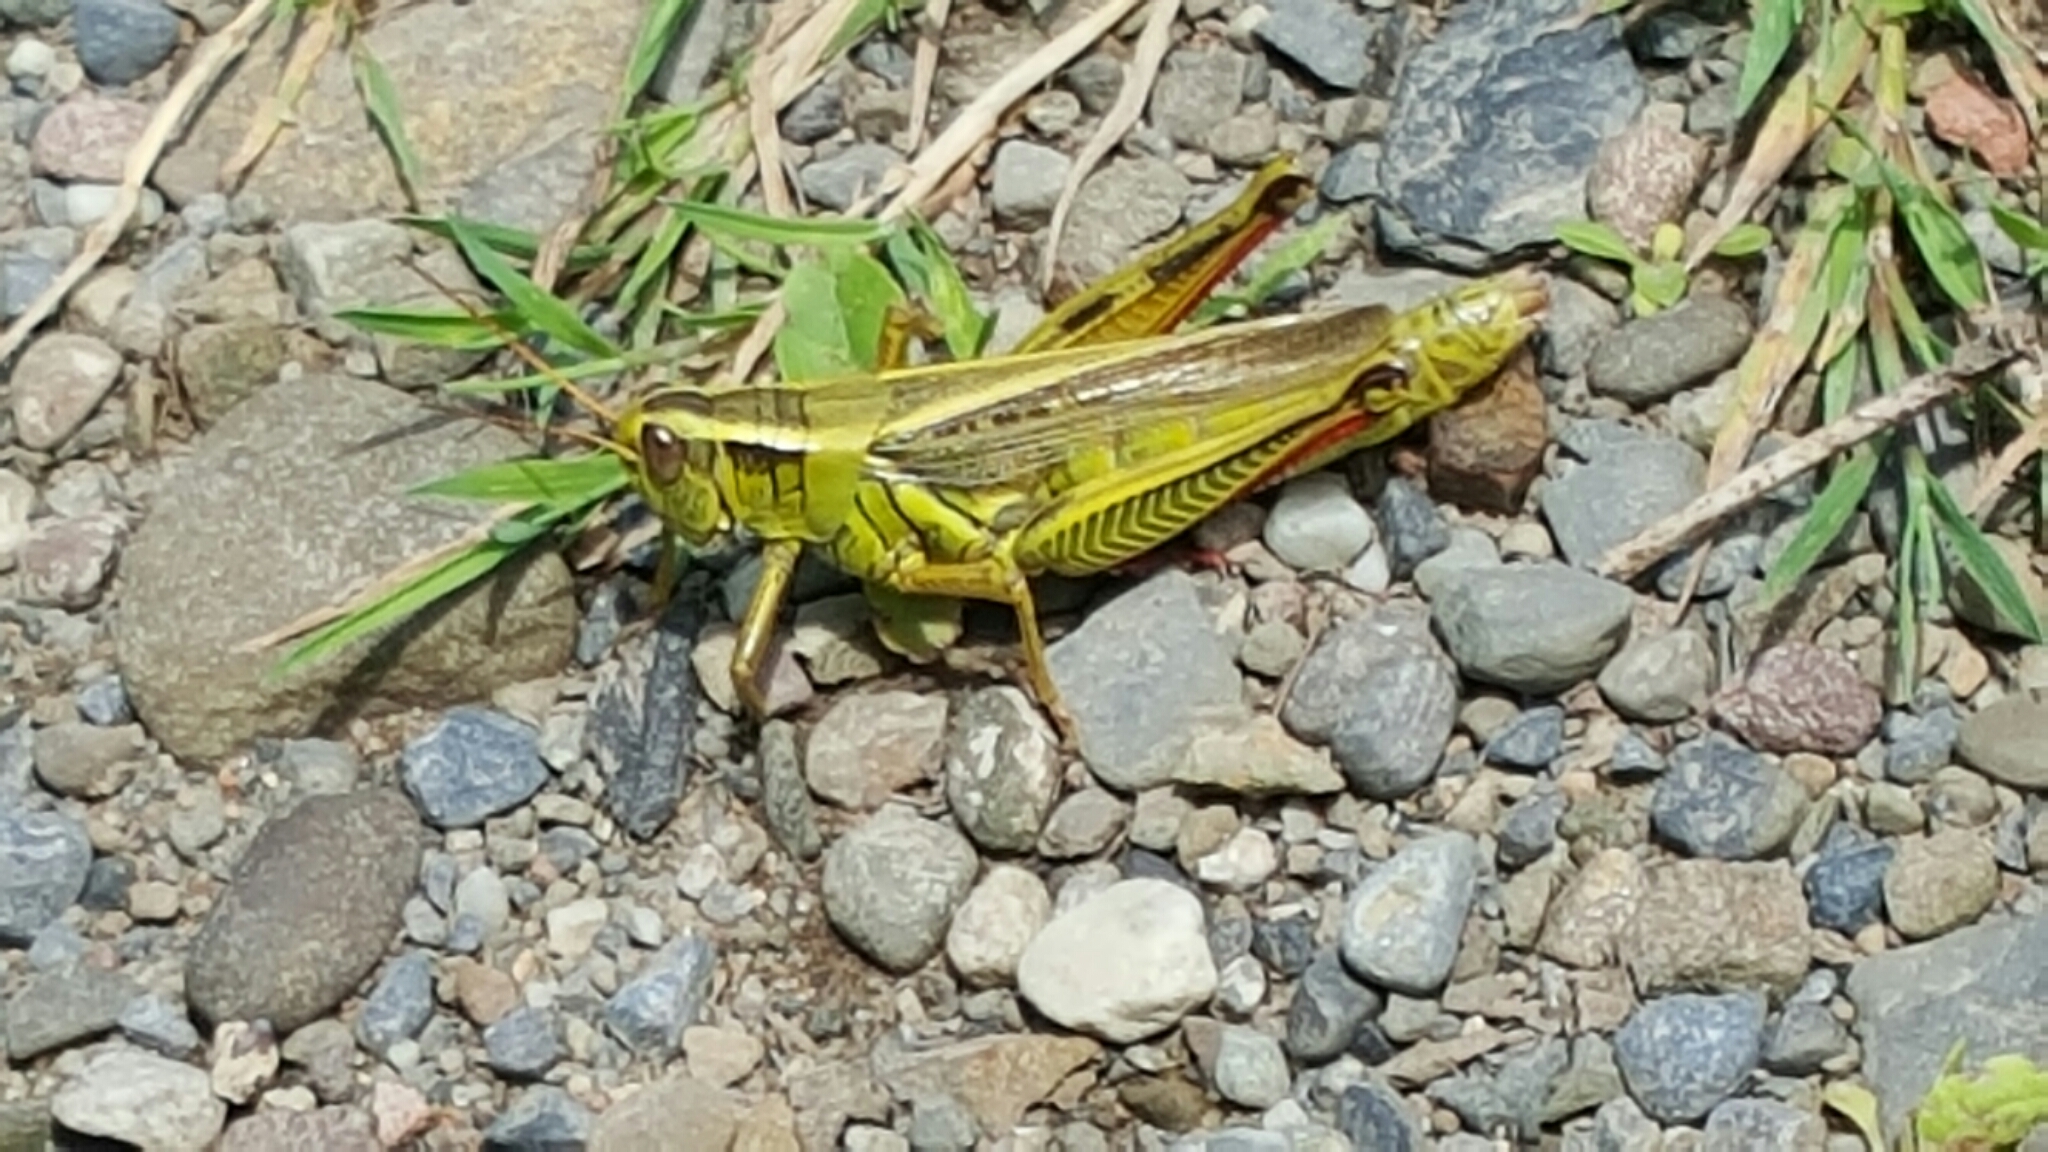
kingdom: Animalia
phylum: Arthropoda
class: Insecta
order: Orthoptera
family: Acrididae
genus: Melanoplus
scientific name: Melanoplus bivittatus
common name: Two-striped grasshopper
